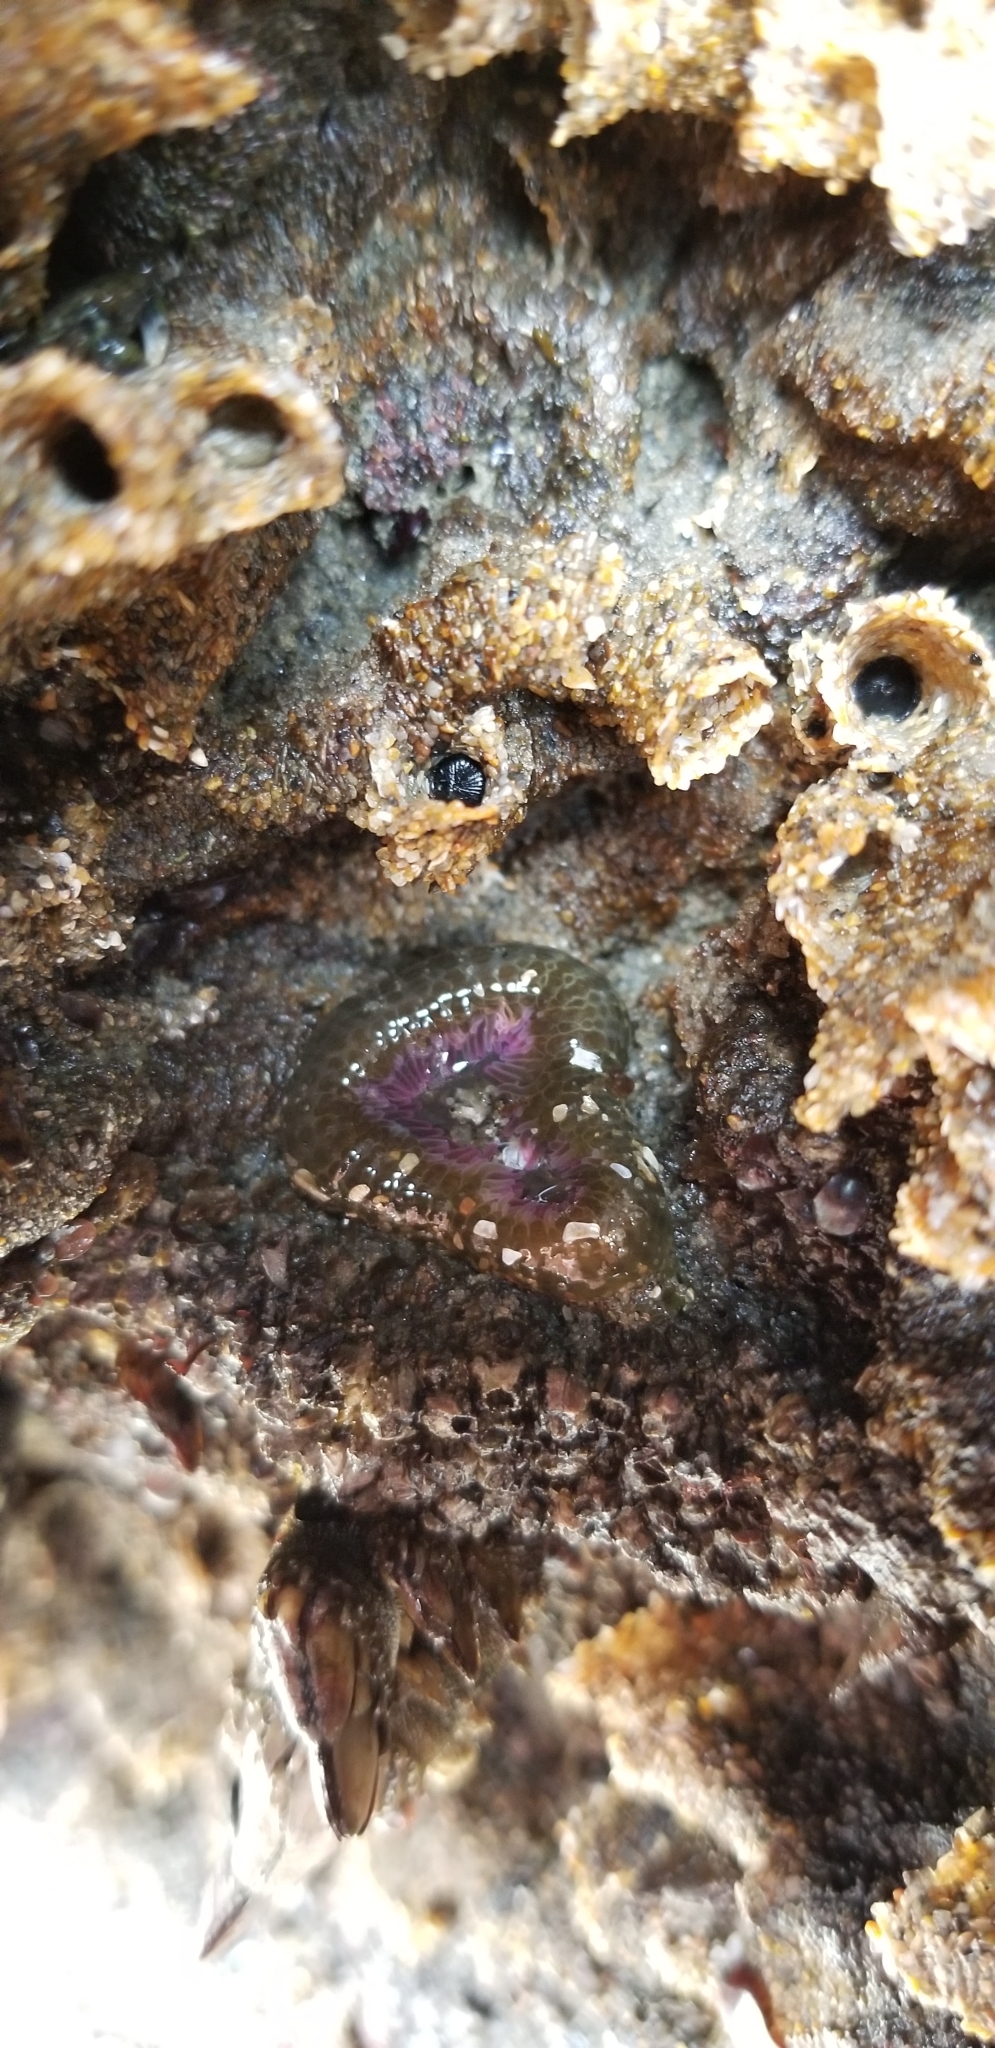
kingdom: Animalia
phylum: Cnidaria
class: Anthozoa
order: Actiniaria
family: Actiniidae
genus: Anthopleura
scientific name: Anthopleura elegantissima
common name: Clonal anemone
